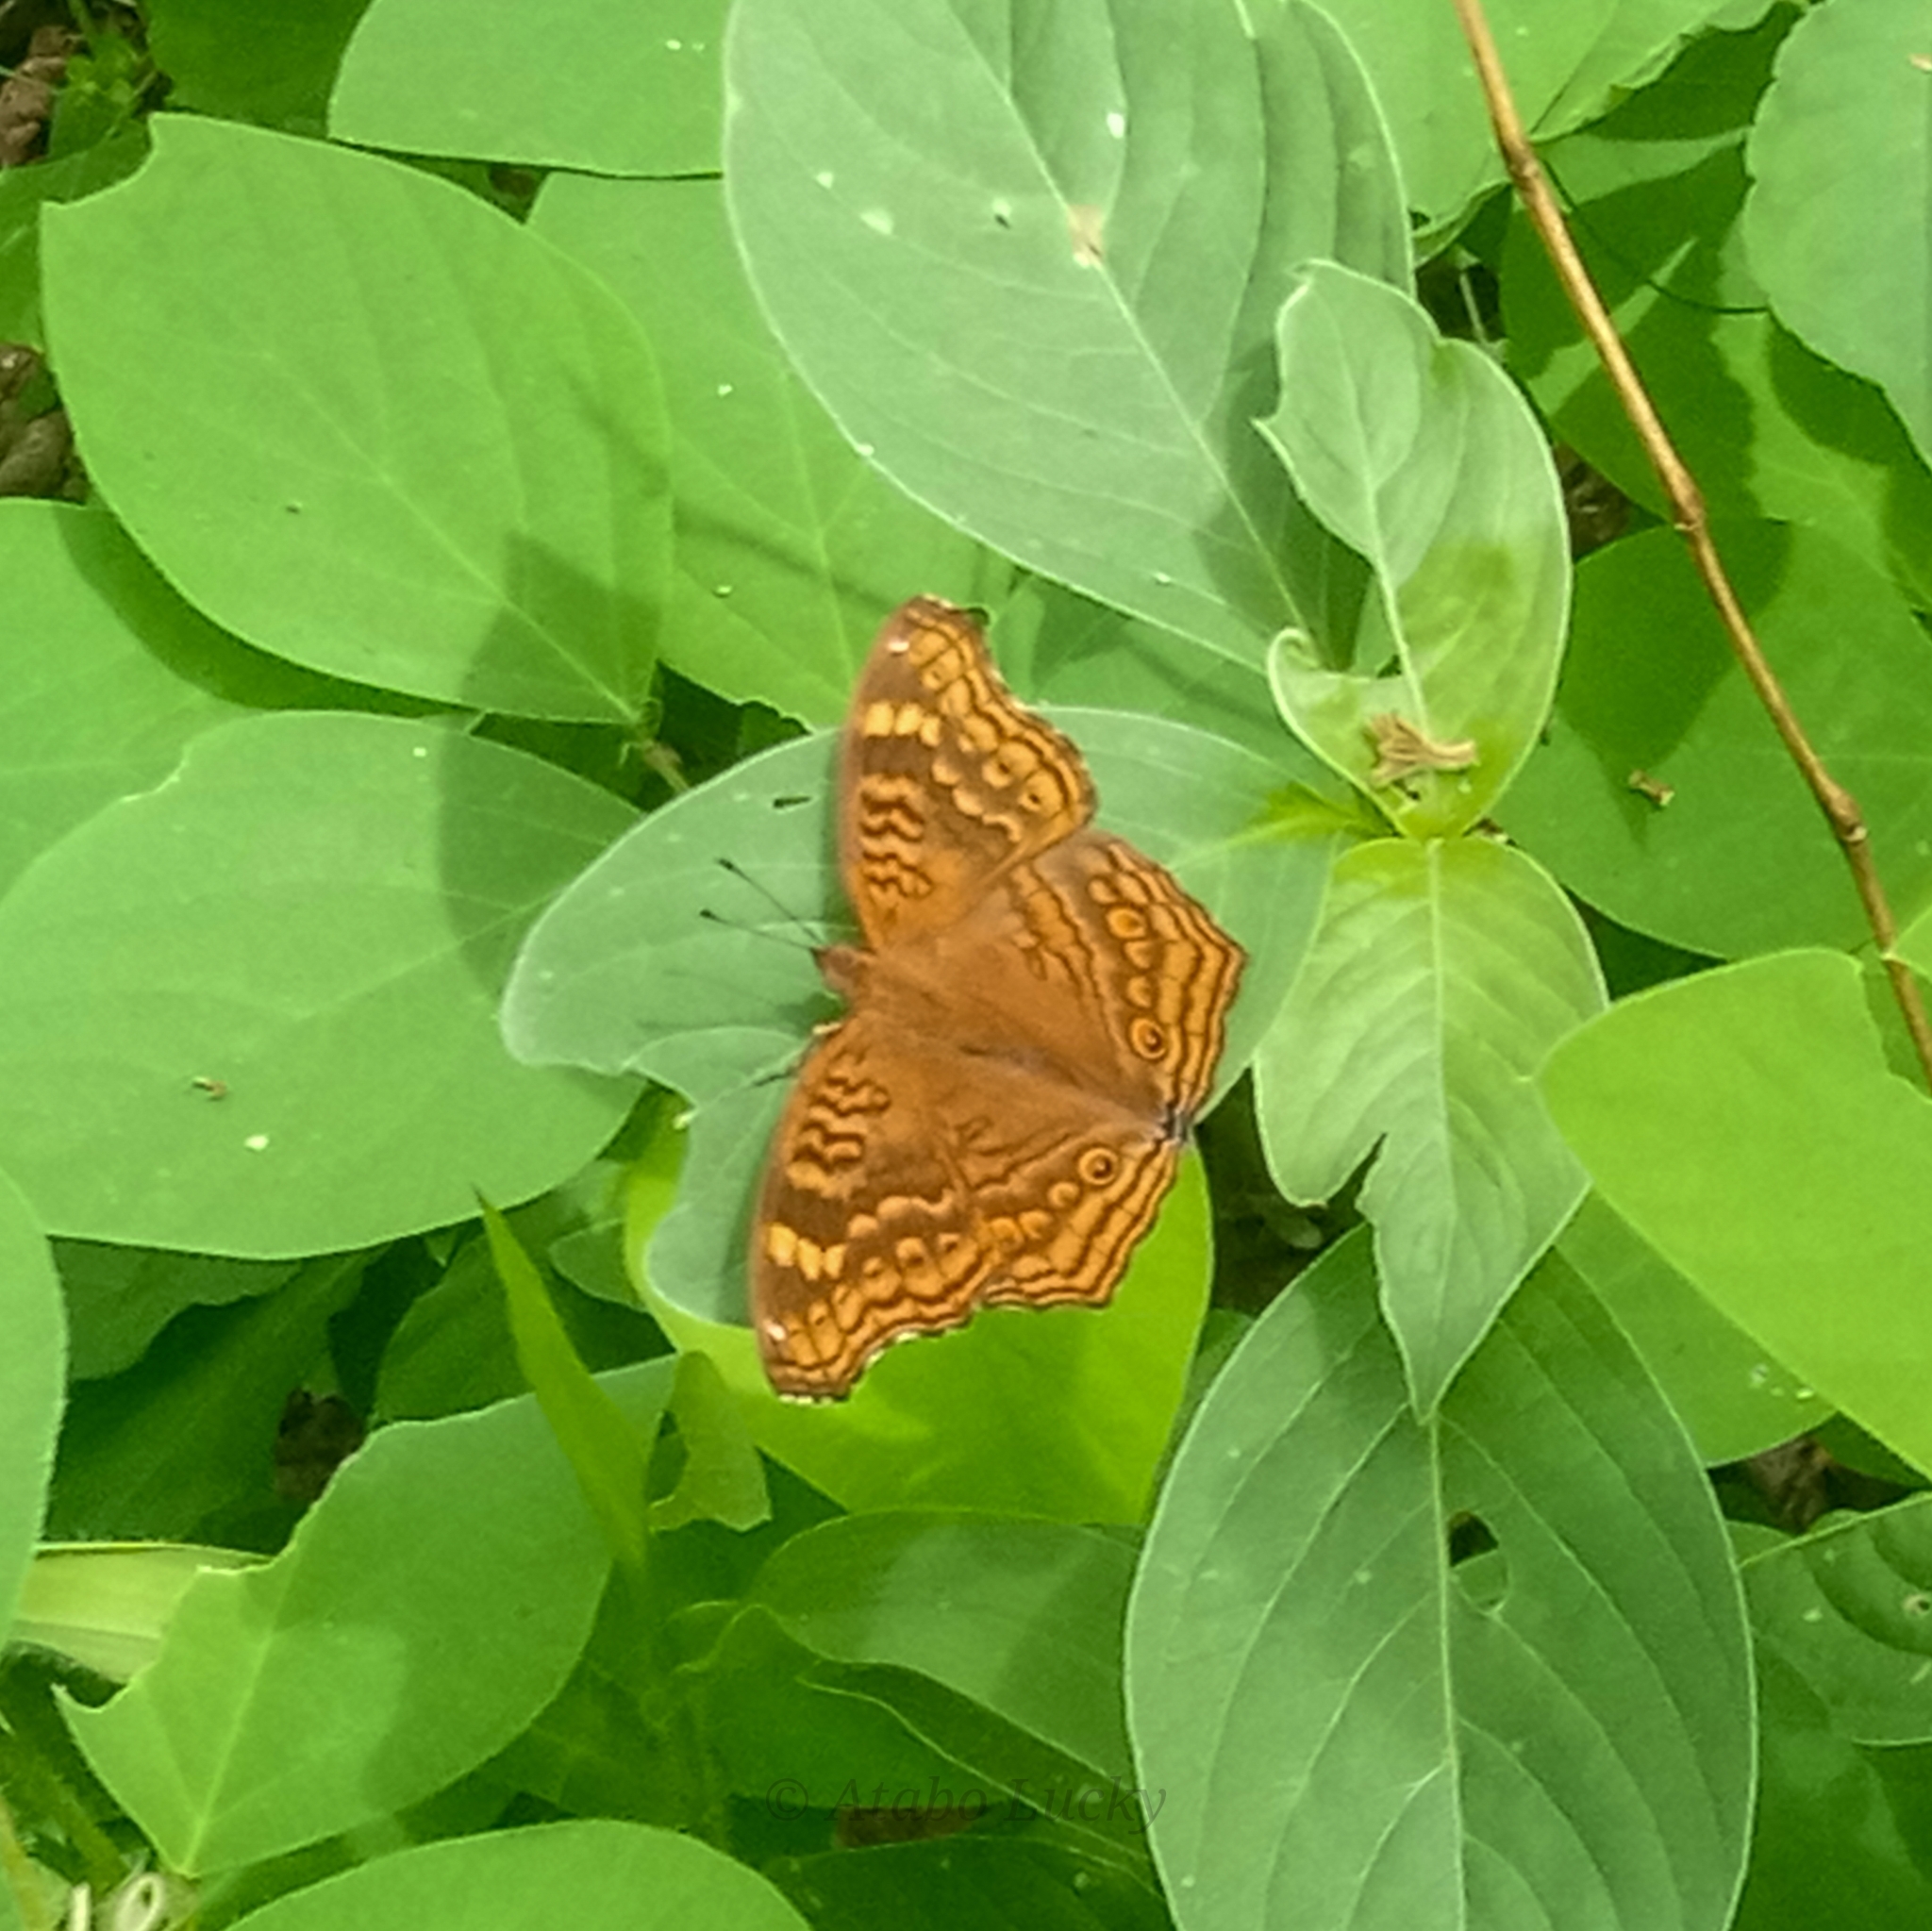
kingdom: Animalia
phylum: Arthropoda
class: Insecta
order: Lepidoptera
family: Nymphalidae
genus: Junonia
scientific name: Junonia chorimene
